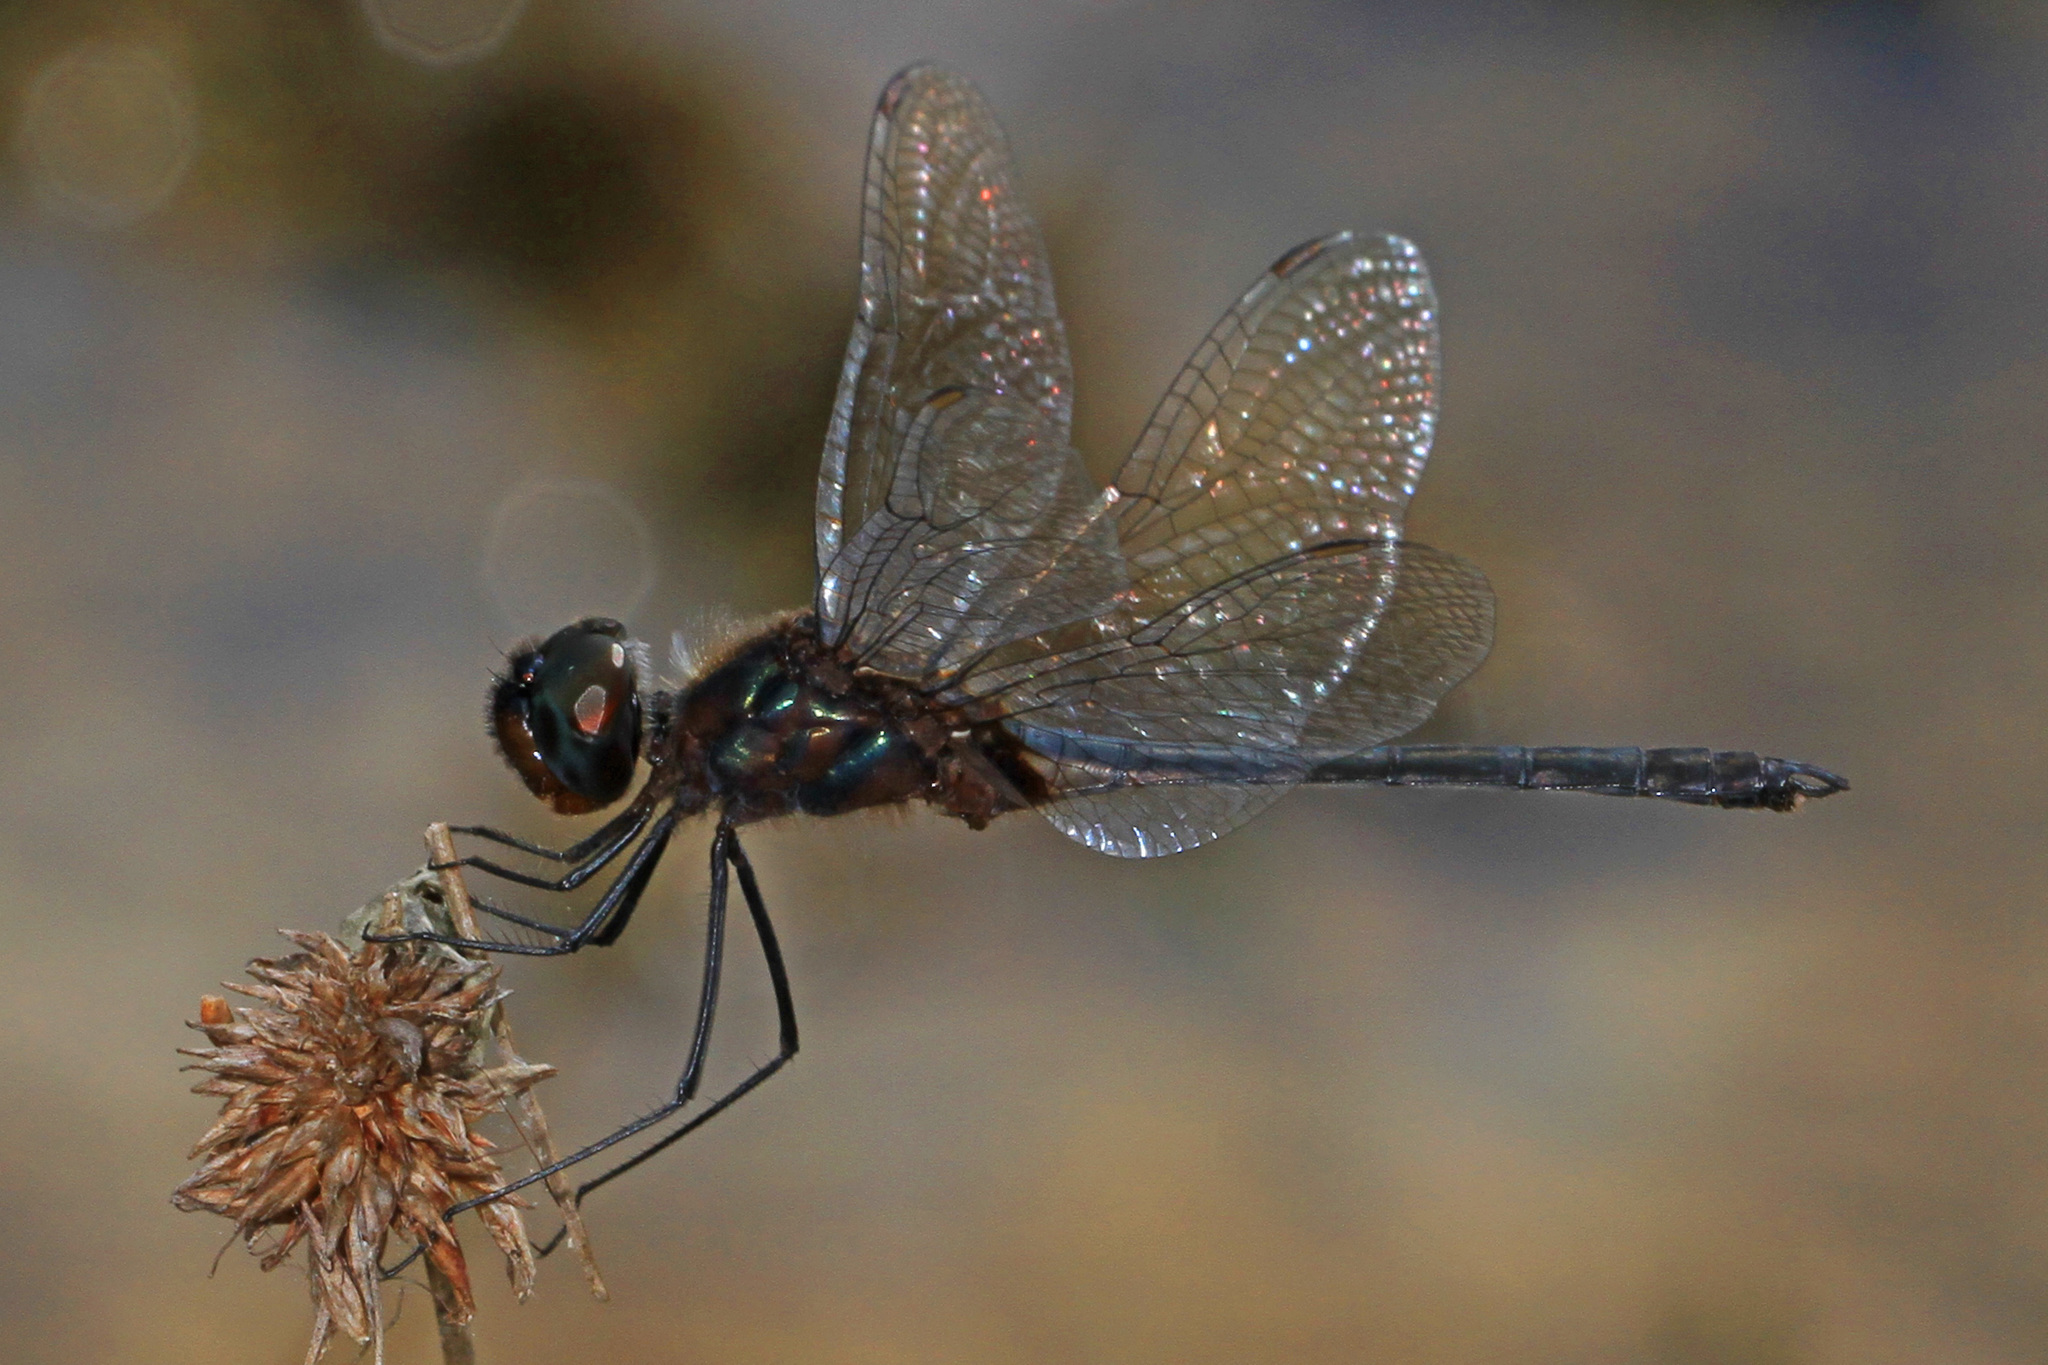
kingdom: Animalia
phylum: Arthropoda
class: Insecta
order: Odonata
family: Libellulidae
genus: Idiataphe
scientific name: Idiataphe cubensis
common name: Metallic pennant
